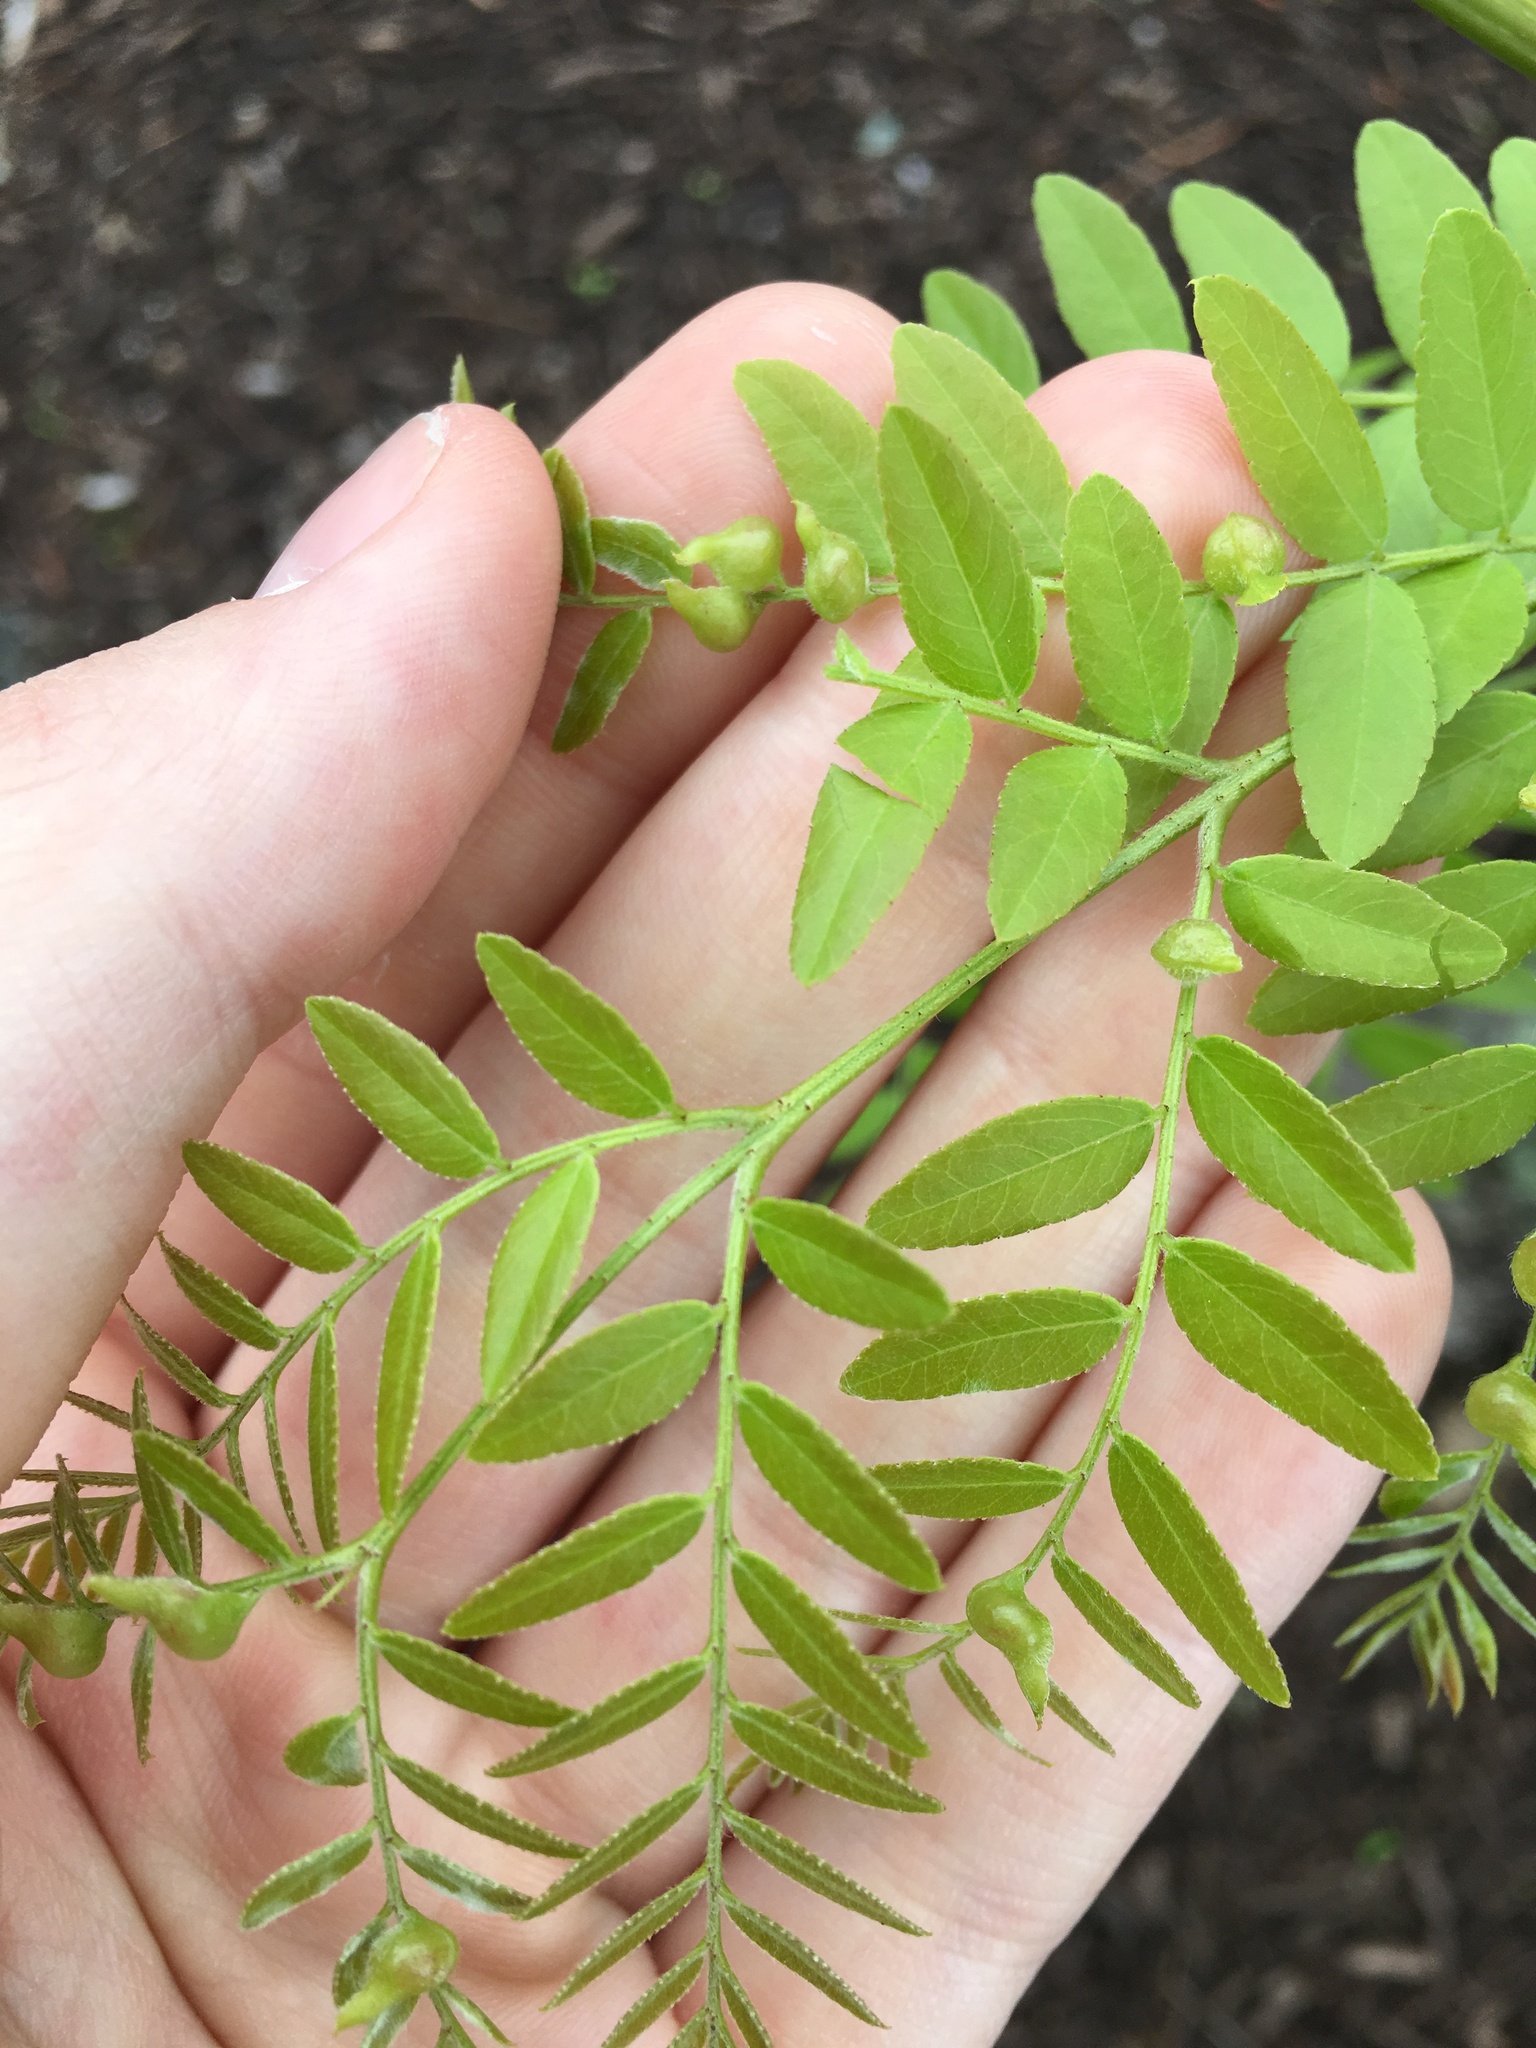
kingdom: Animalia
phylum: Arthropoda
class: Insecta
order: Diptera
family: Cecidomyiidae
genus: Dasineura
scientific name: Dasineura gleditchiae
